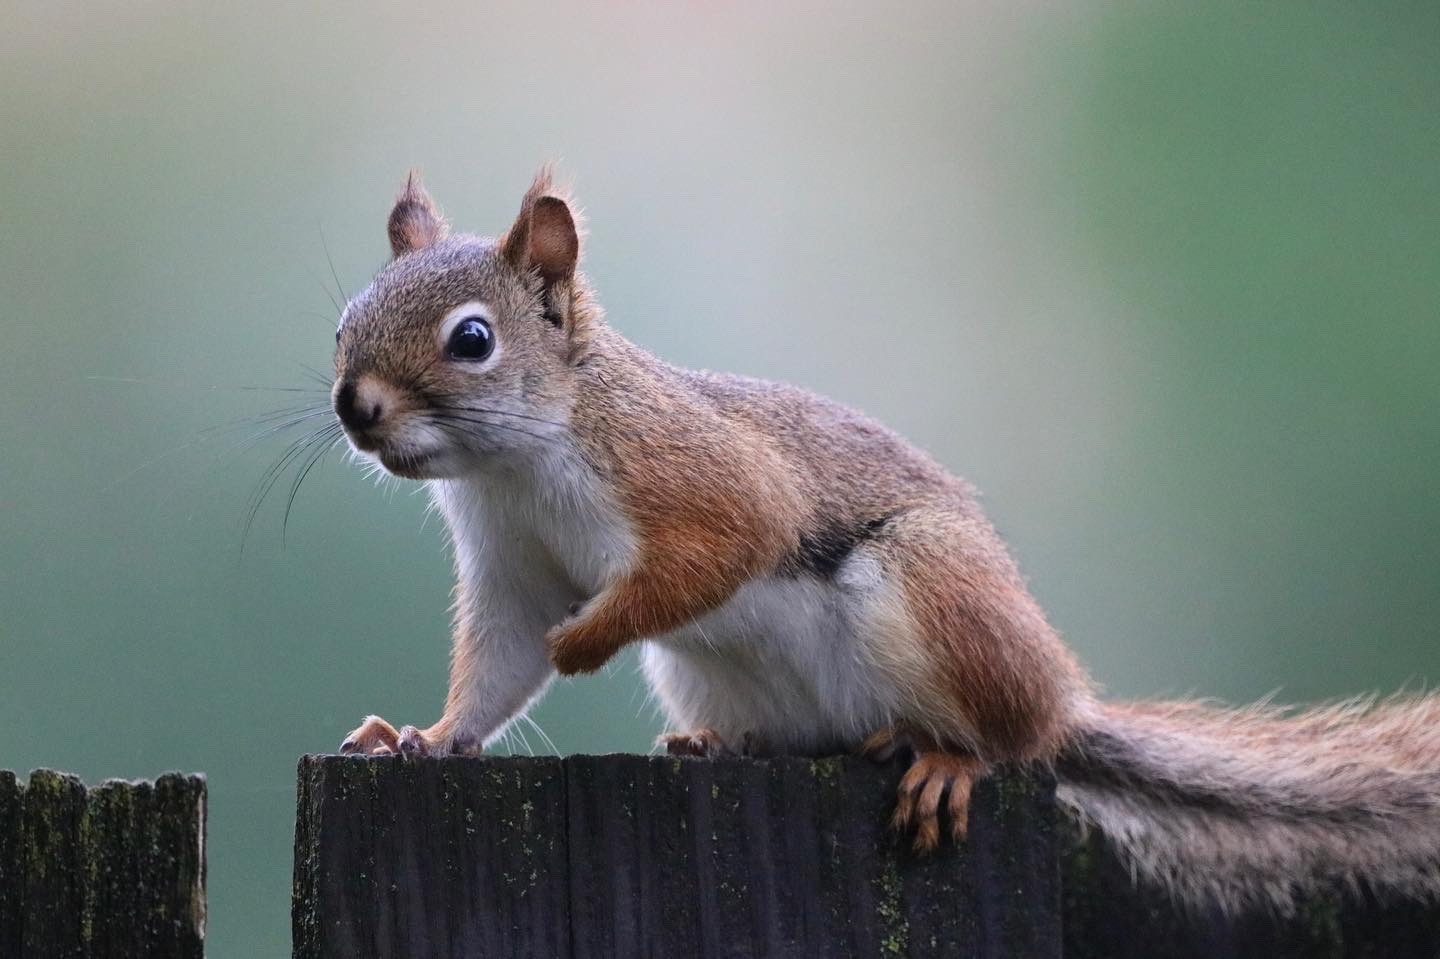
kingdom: Animalia
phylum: Chordata
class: Mammalia
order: Rodentia
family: Sciuridae
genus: Tamiasciurus
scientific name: Tamiasciurus hudsonicus
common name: Red squirrel
